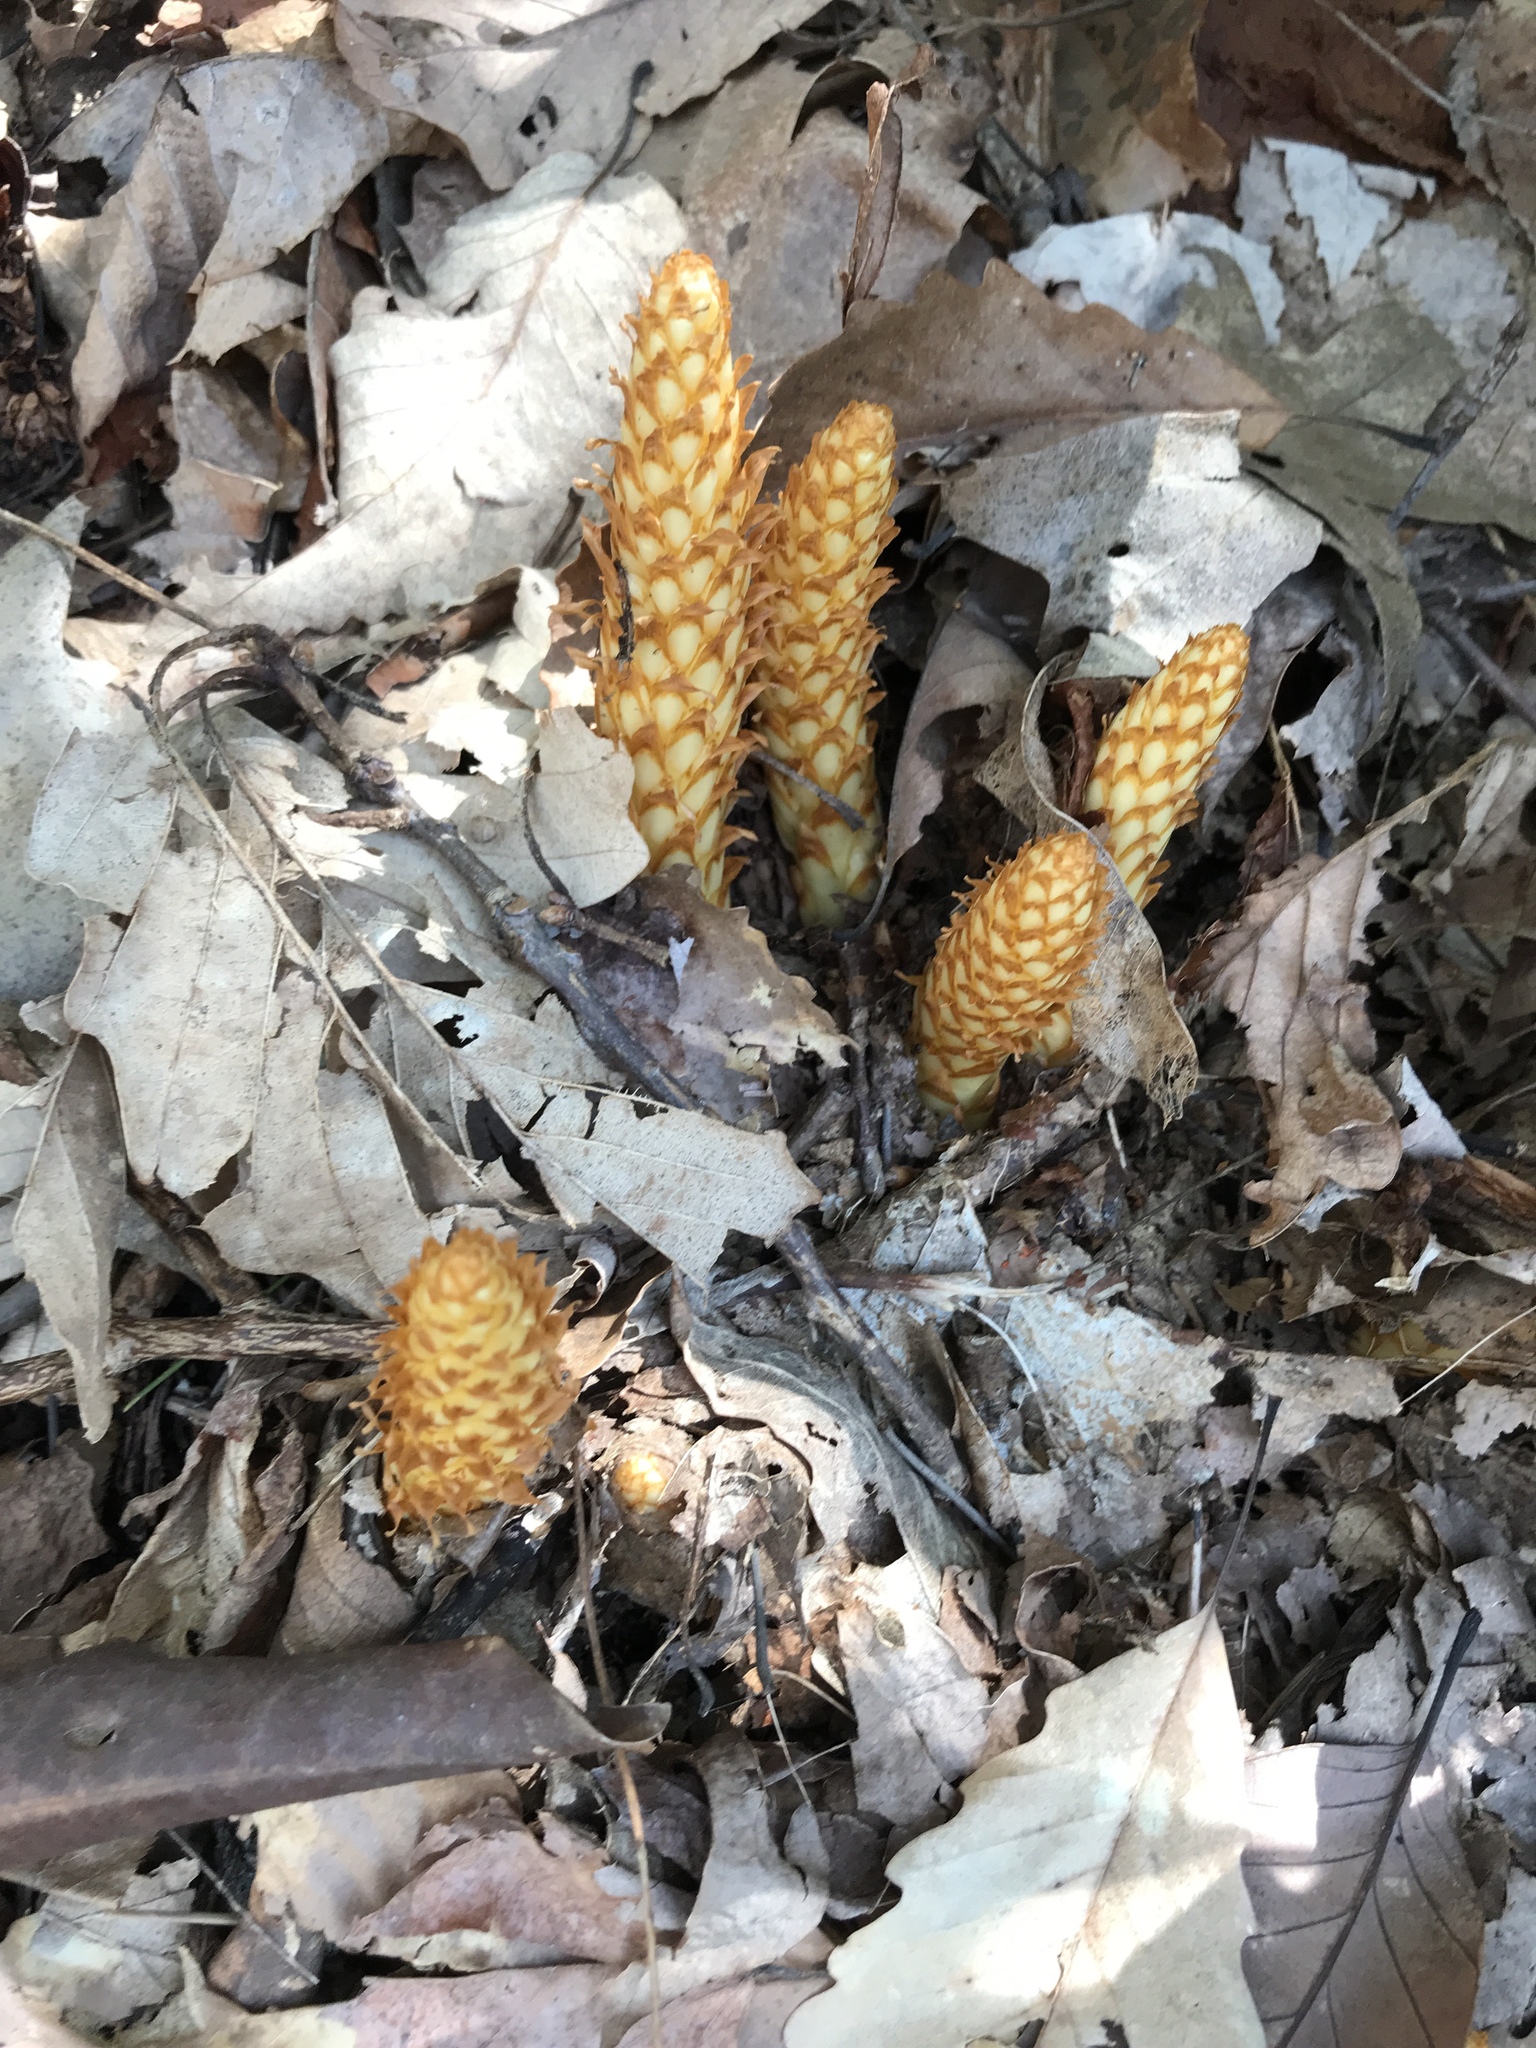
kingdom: Plantae
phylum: Tracheophyta
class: Magnoliopsida
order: Lamiales
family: Orobanchaceae
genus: Conopholis
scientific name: Conopholis americana
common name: American cancer-root
